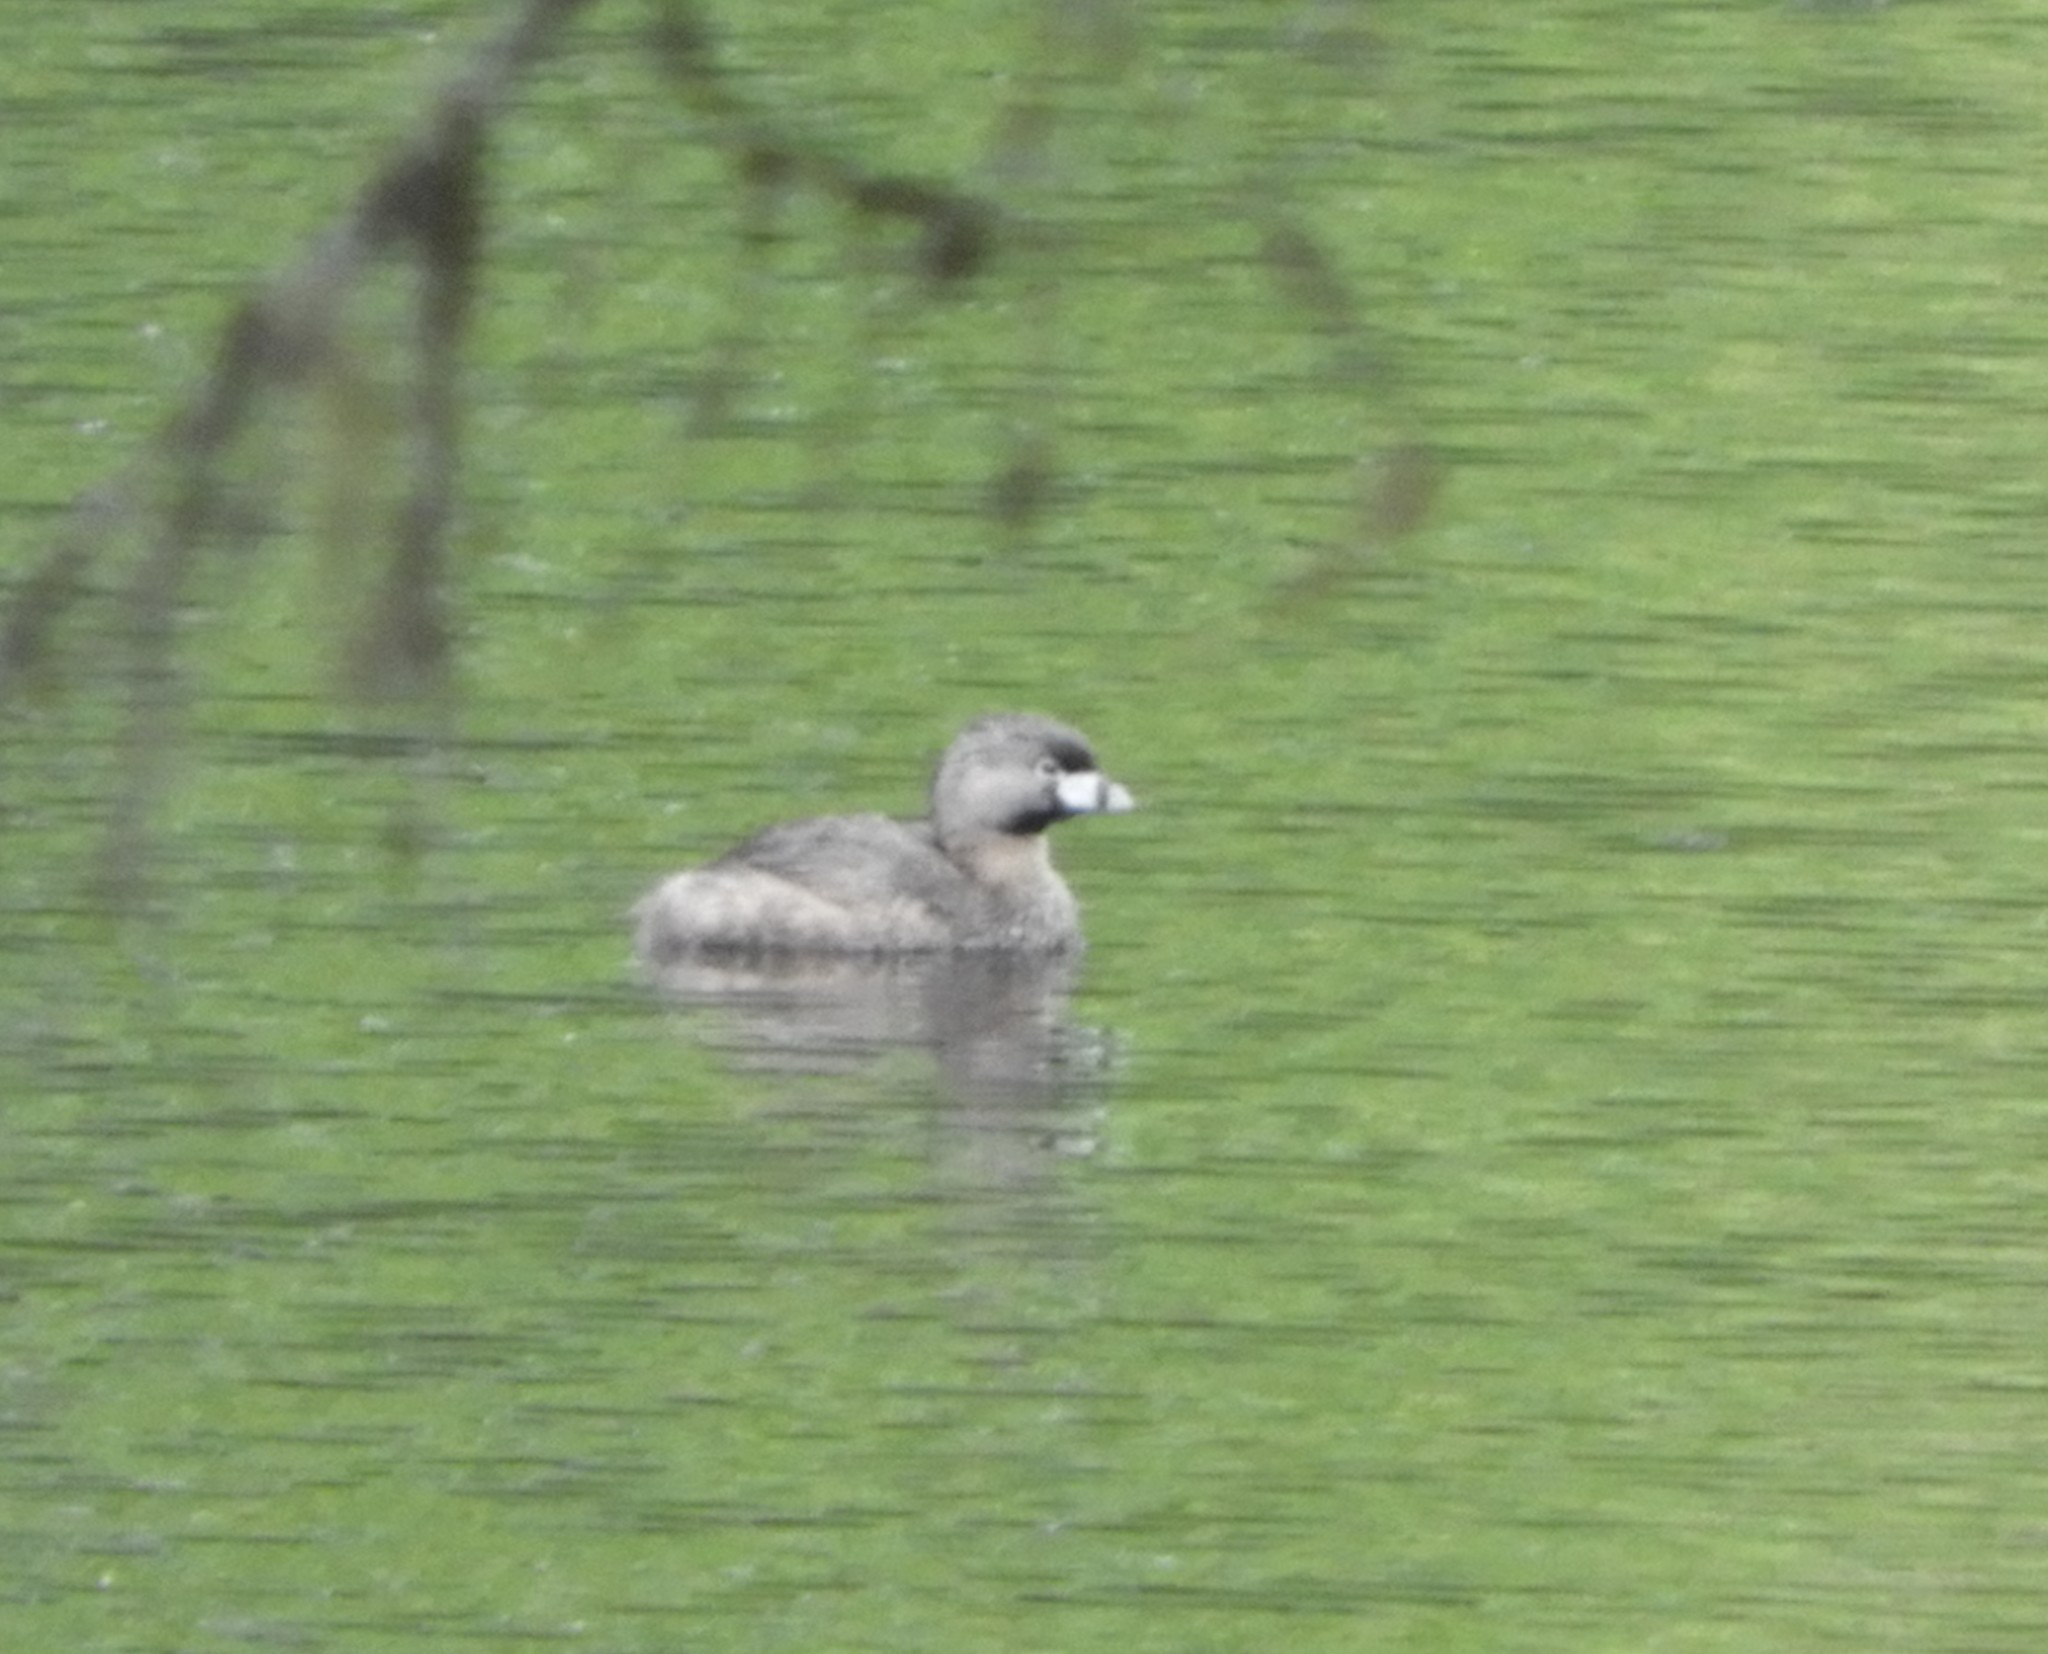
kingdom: Animalia
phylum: Chordata
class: Aves
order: Podicipediformes
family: Podicipedidae
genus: Podilymbus
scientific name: Podilymbus podiceps
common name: Pied-billed grebe
